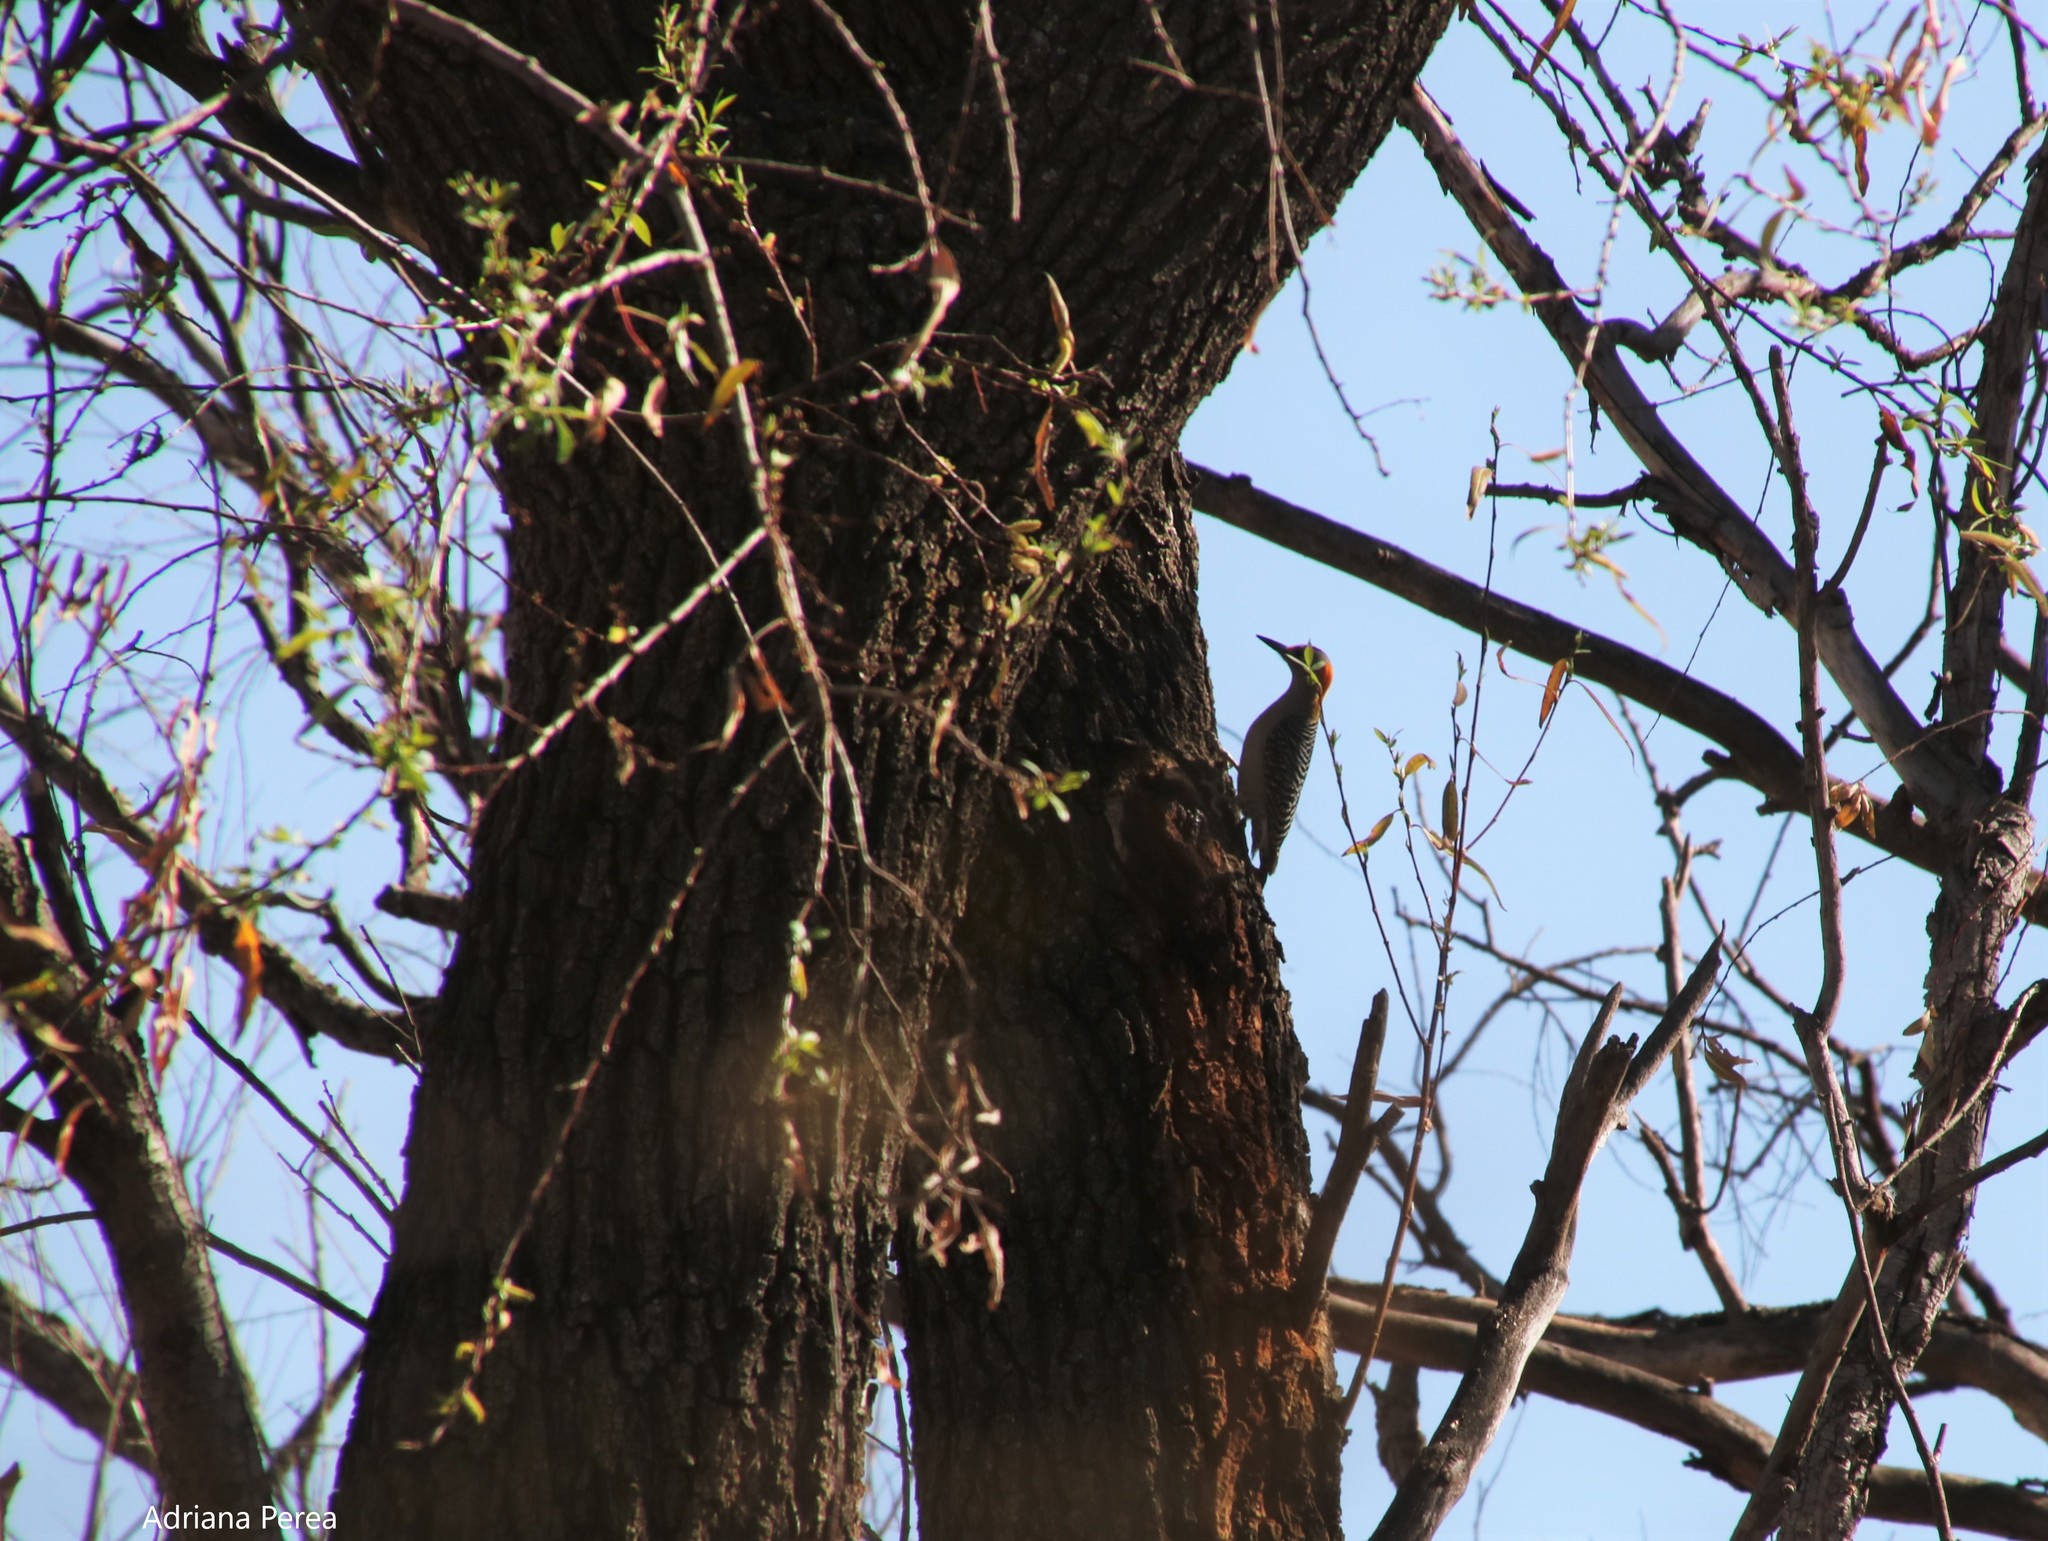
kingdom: Animalia
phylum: Chordata
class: Aves
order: Piciformes
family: Picidae
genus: Melanerpes
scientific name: Melanerpes aurifrons
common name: Golden-fronted woodpecker
